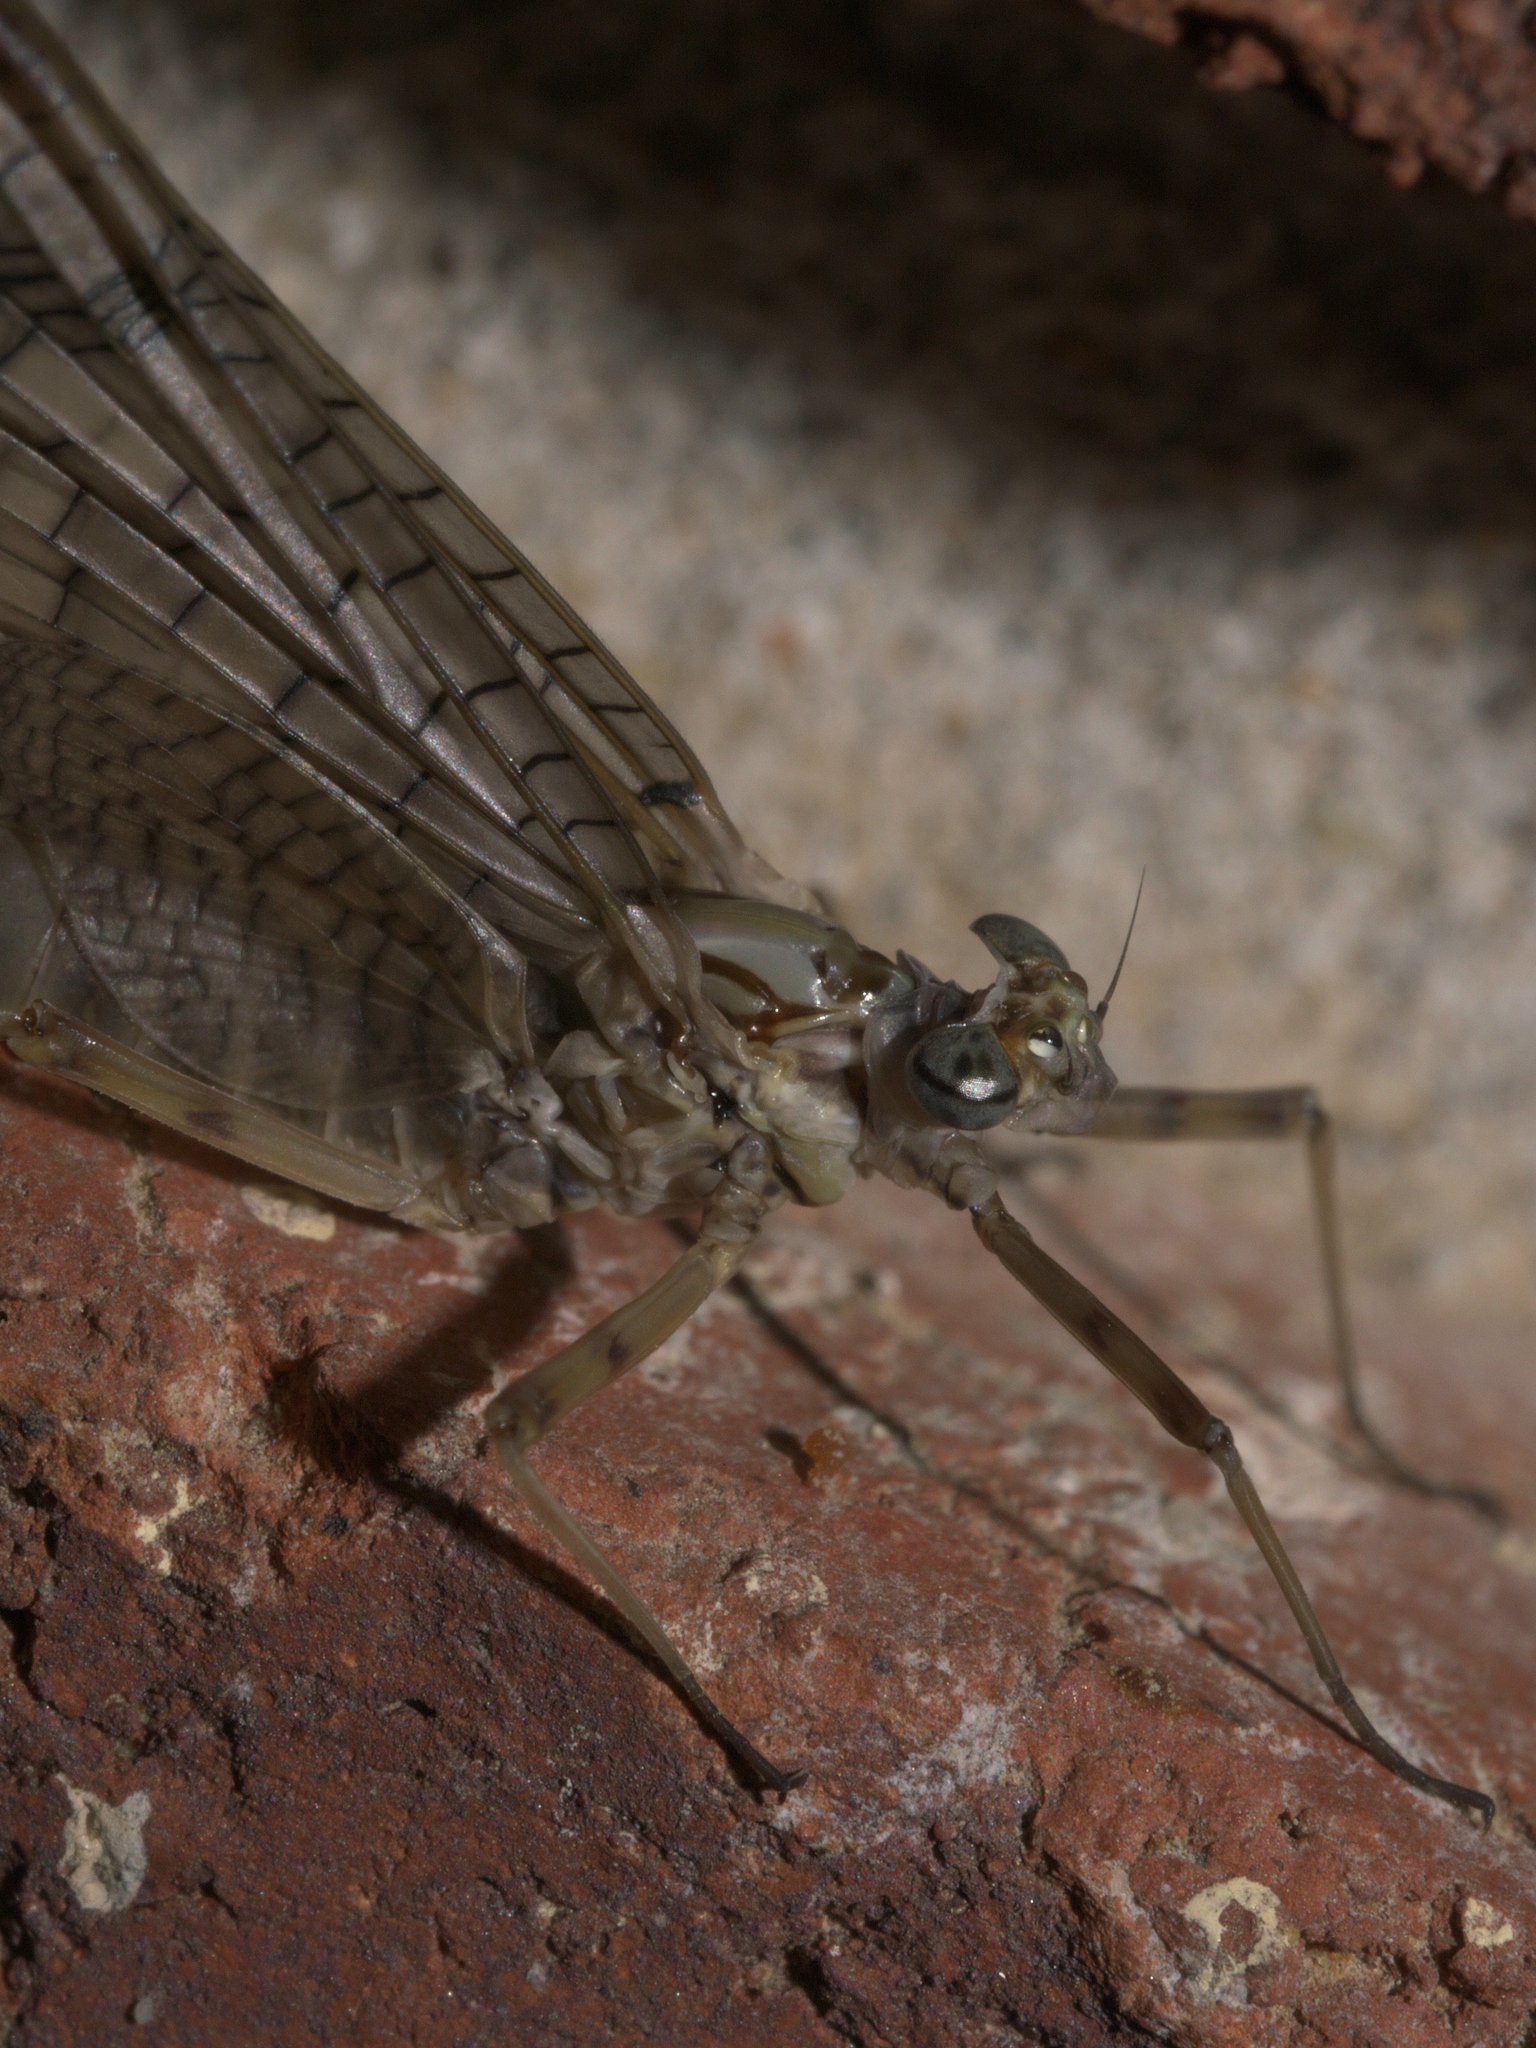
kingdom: Animalia
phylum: Arthropoda
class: Insecta
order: Coleoptera
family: Carabidae
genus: Stenolophus
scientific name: Stenolophus ochropezus
